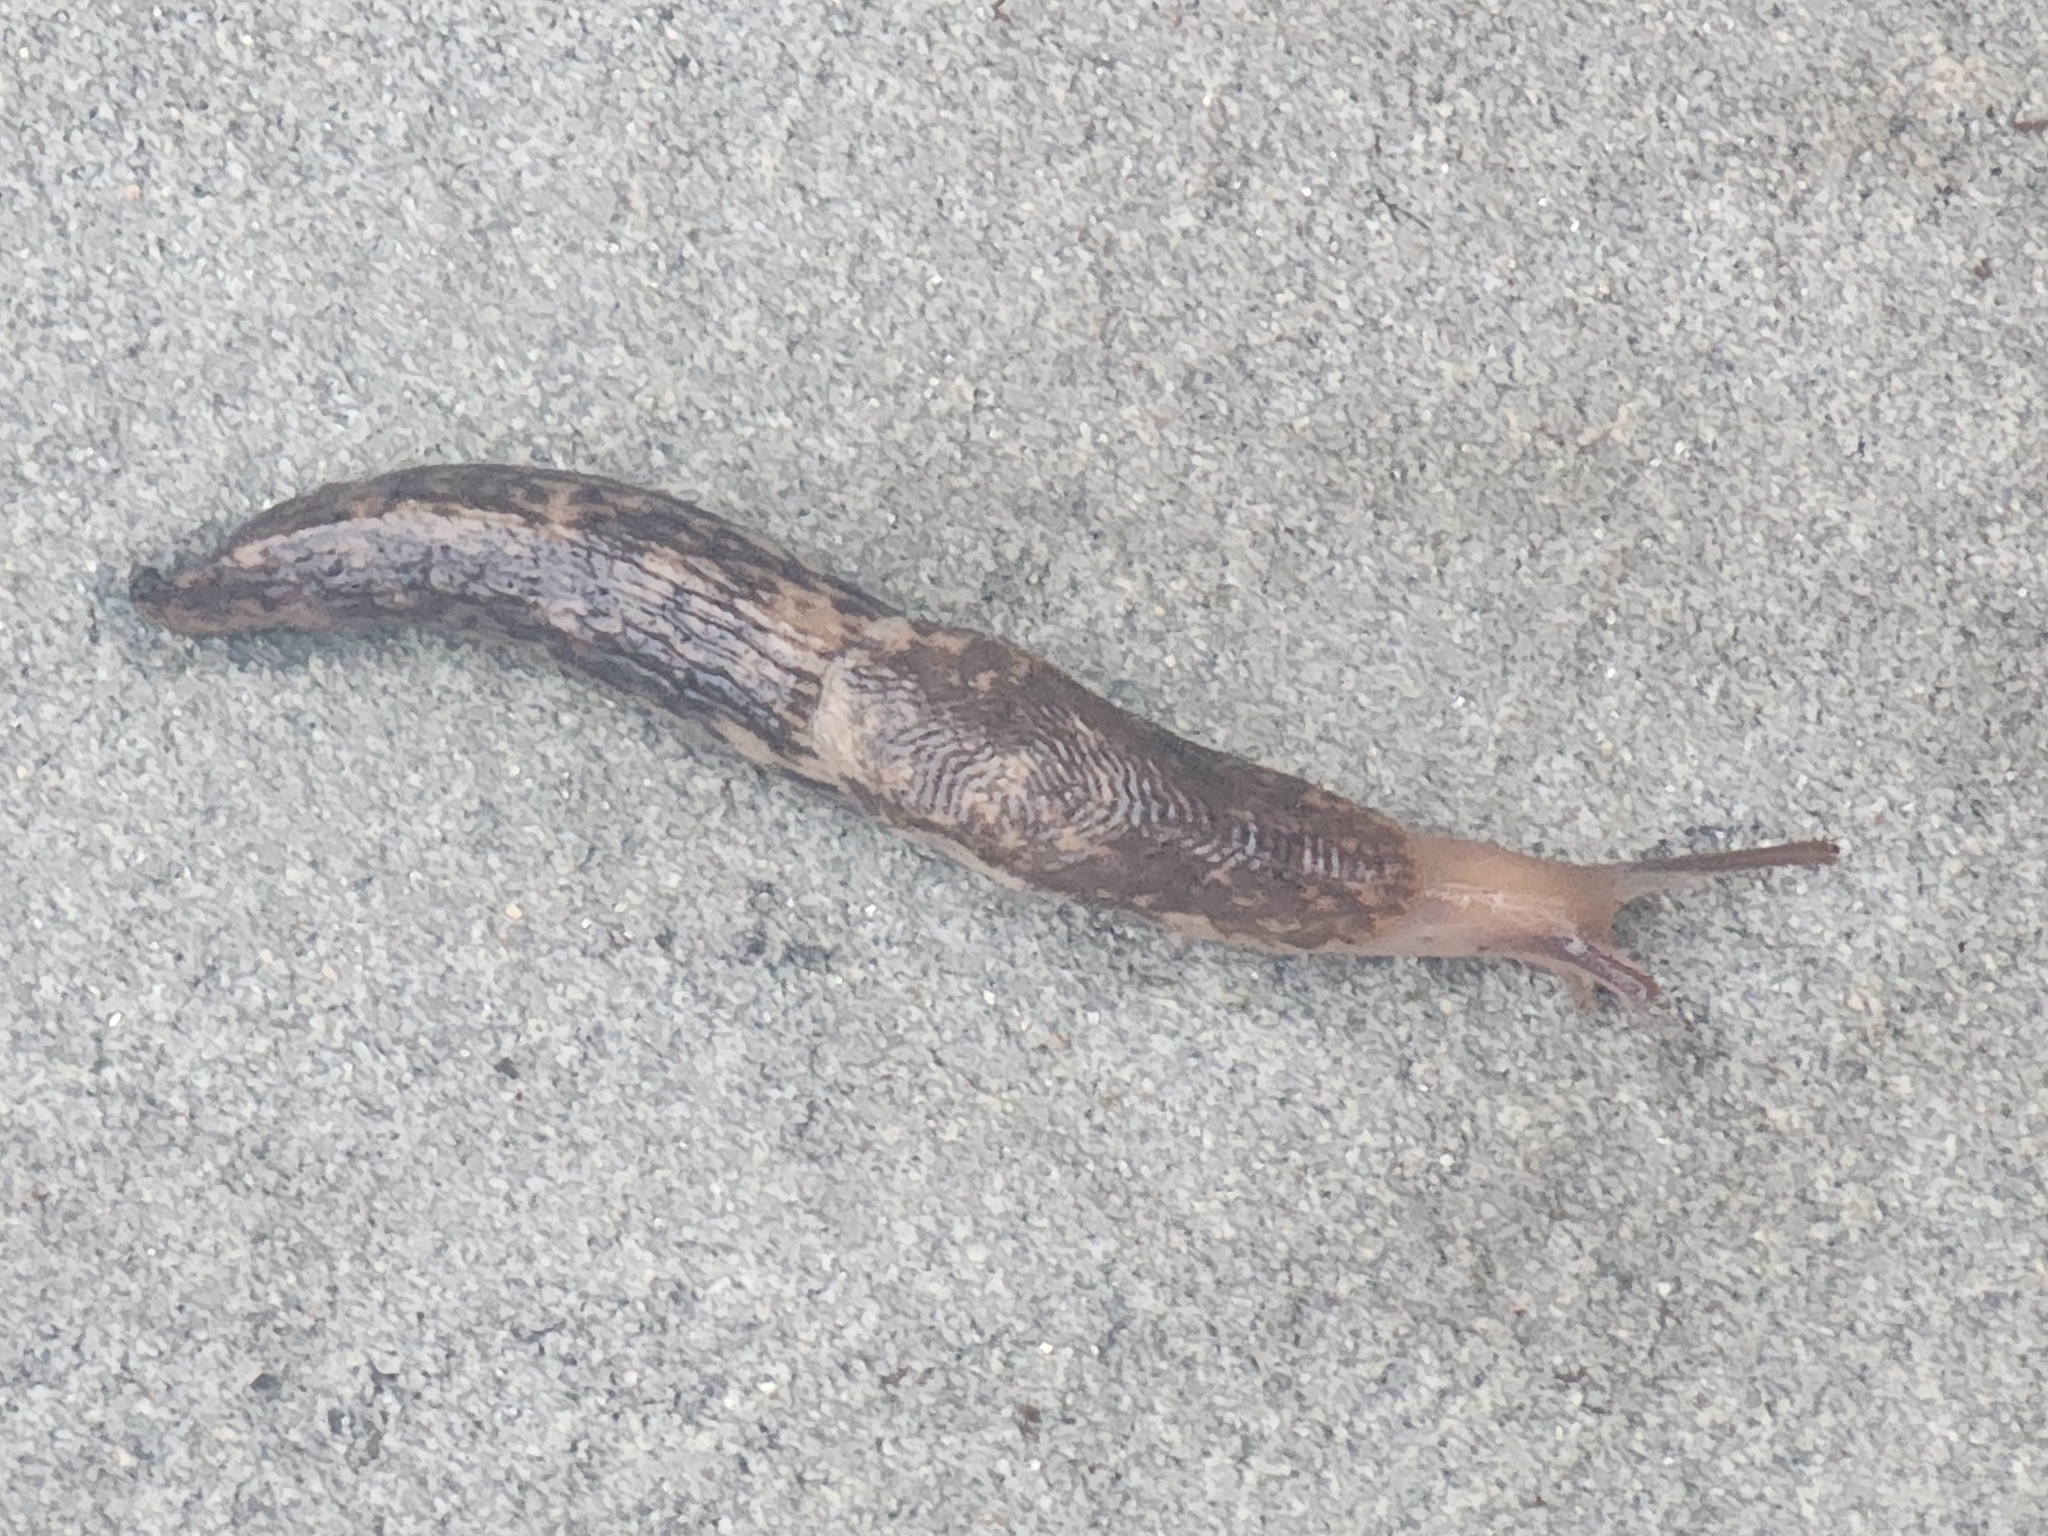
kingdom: Animalia
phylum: Mollusca
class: Gastropoda
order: Stylommatophora
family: Agriolimacidae
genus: Deroceras
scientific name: Deroceras reticulatum
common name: Gray field slug
